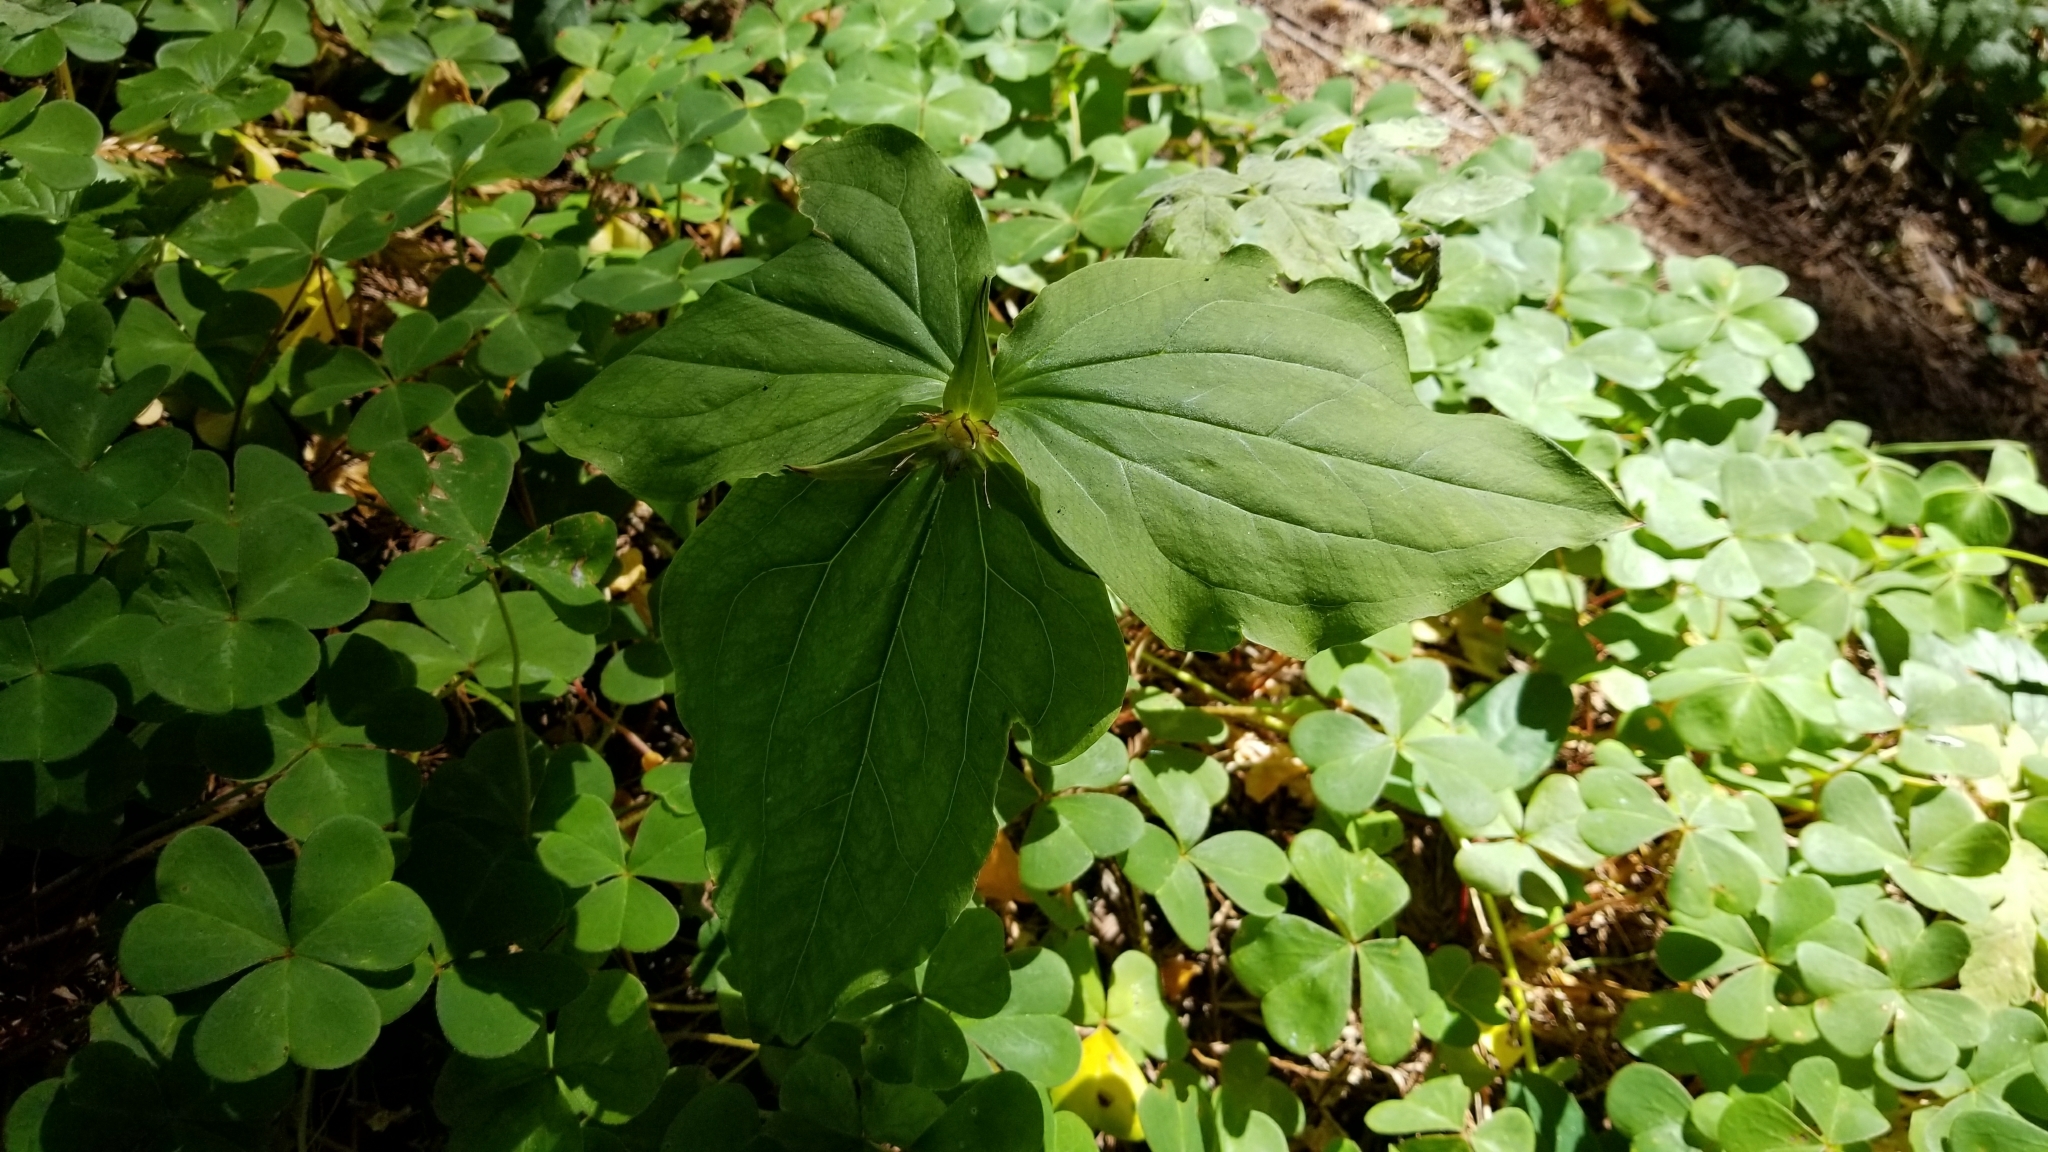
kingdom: Plantae
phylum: Tracheophyta
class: Liliopsida
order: Liliales
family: Melanthiaceae
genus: Trillium
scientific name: Trillium ovatum
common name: Pacific trillium
